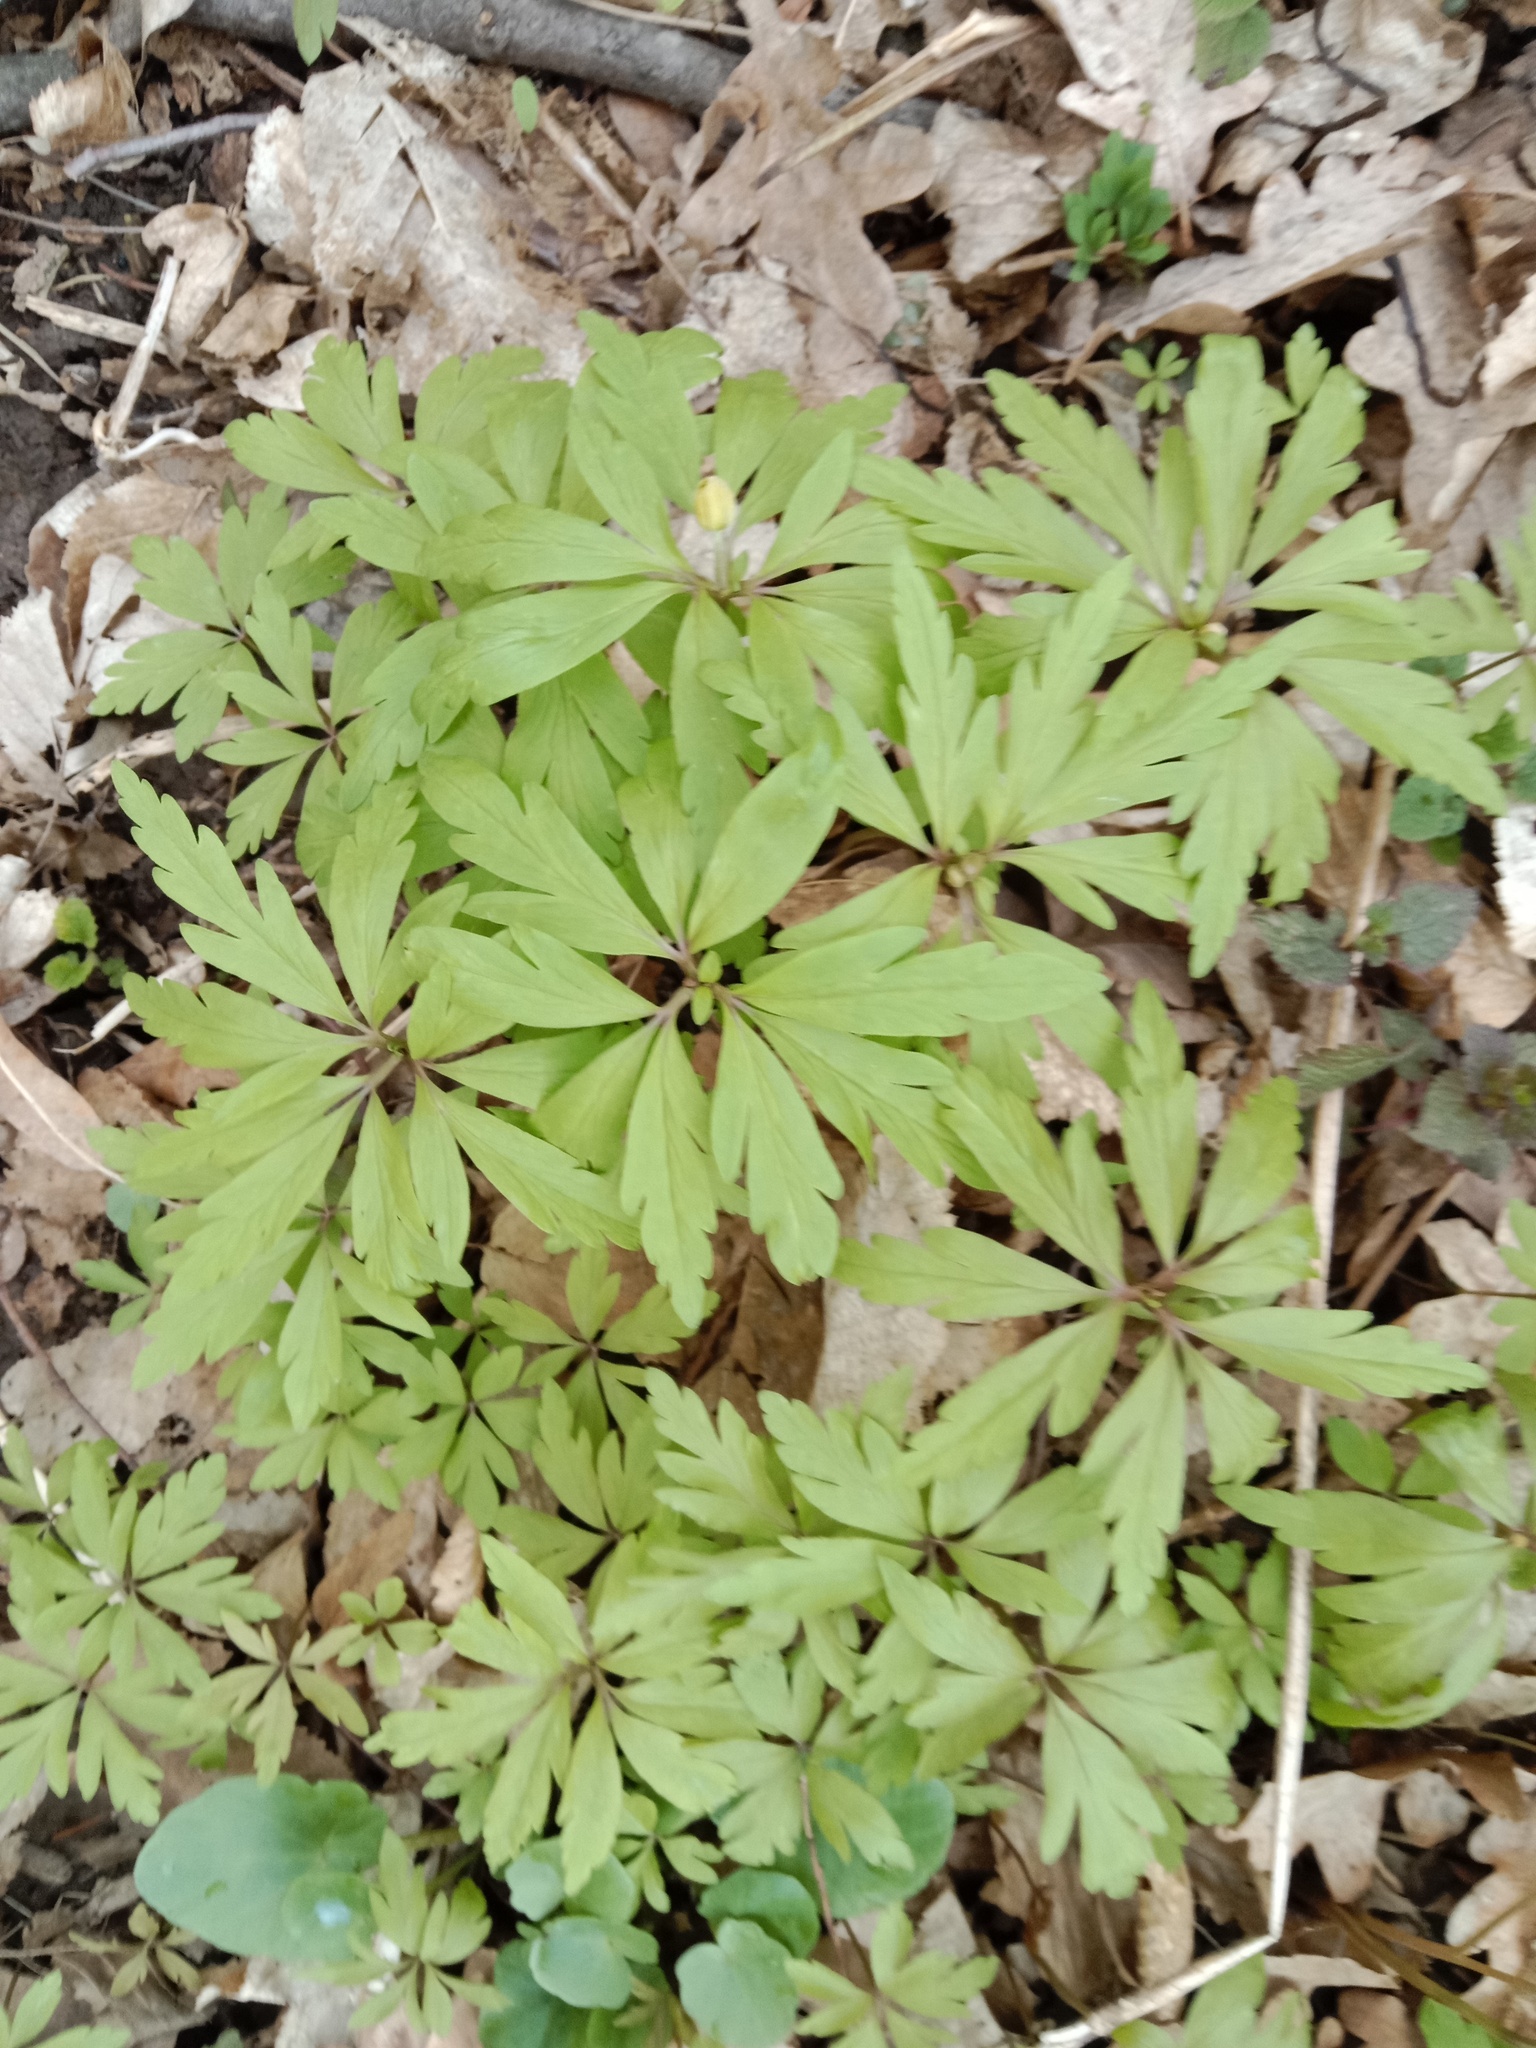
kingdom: Plantae
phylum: Tracheophyta
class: Magnoliopsida
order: Ranunculales
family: Ranunculaceae
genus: Anemone
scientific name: Anemone ranunculoides
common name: Yellow anemone
